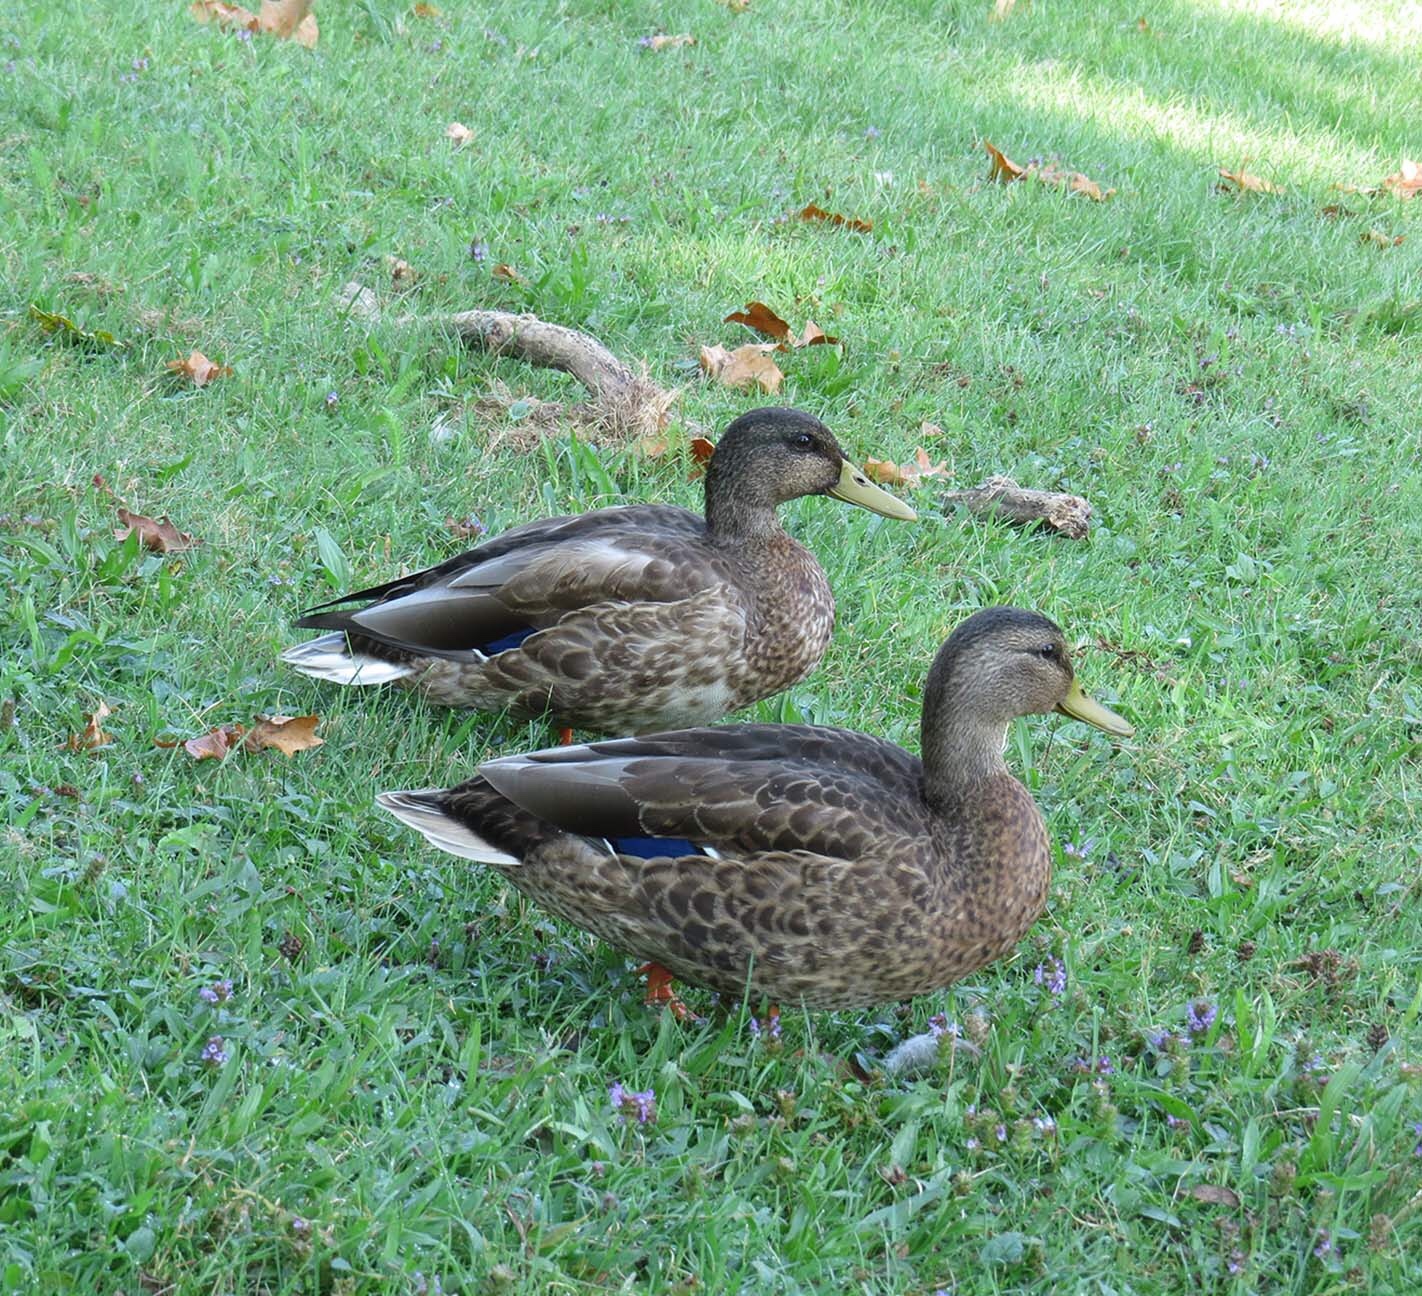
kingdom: Animalia
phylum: Chordata
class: Aves
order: Anseriformes
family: Anatidae
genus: Anas
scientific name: Anas platyrhynchos
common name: Mallard
